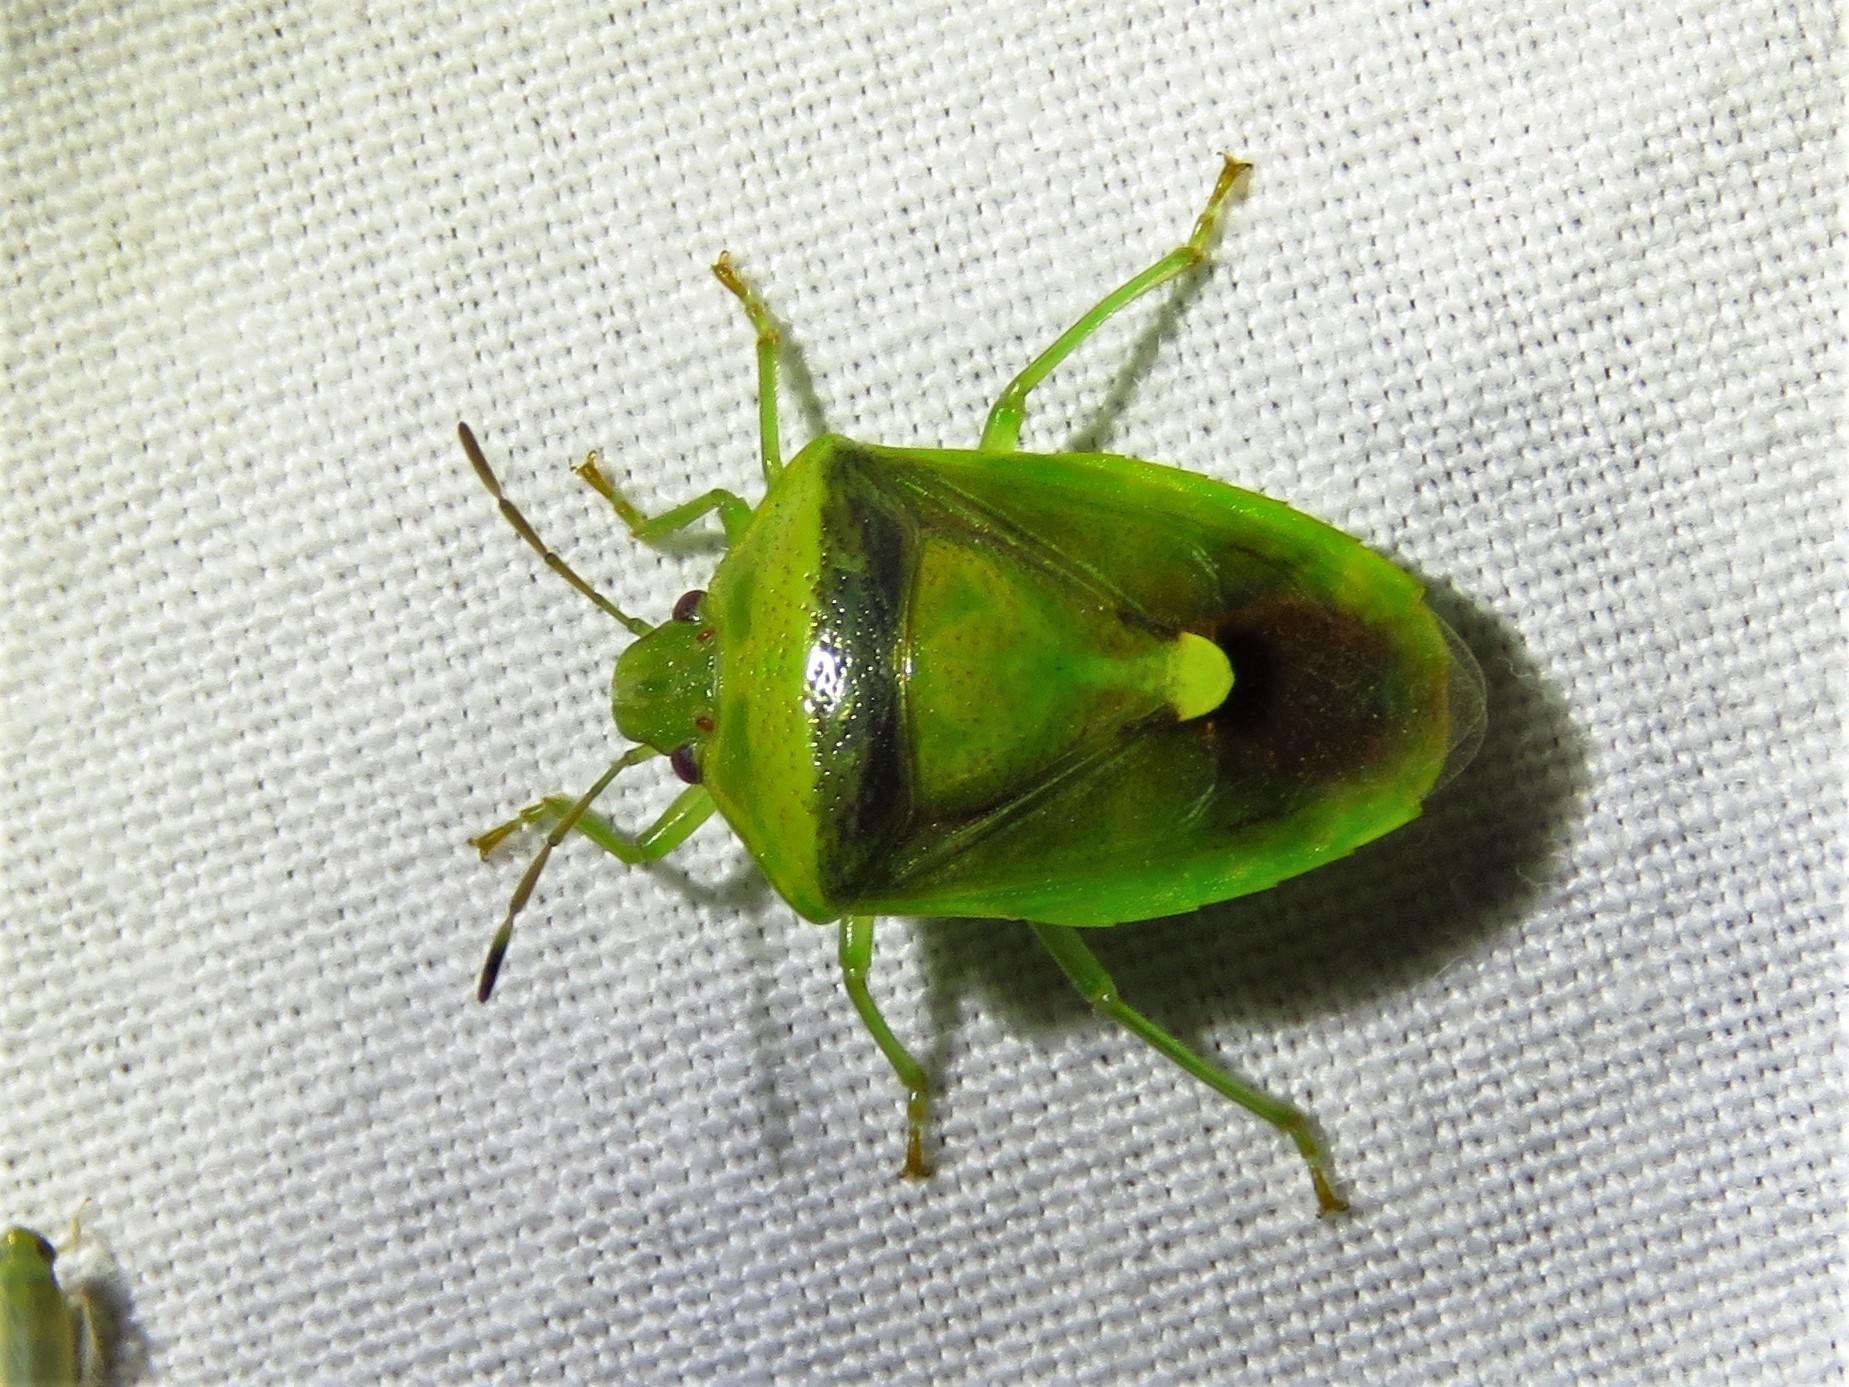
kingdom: Animalia
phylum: Arthropoda
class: Insecta
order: Hemiptera
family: Pentatomidae
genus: Banasa
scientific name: Banasa dimidiata
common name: Green burgundy stink bug
